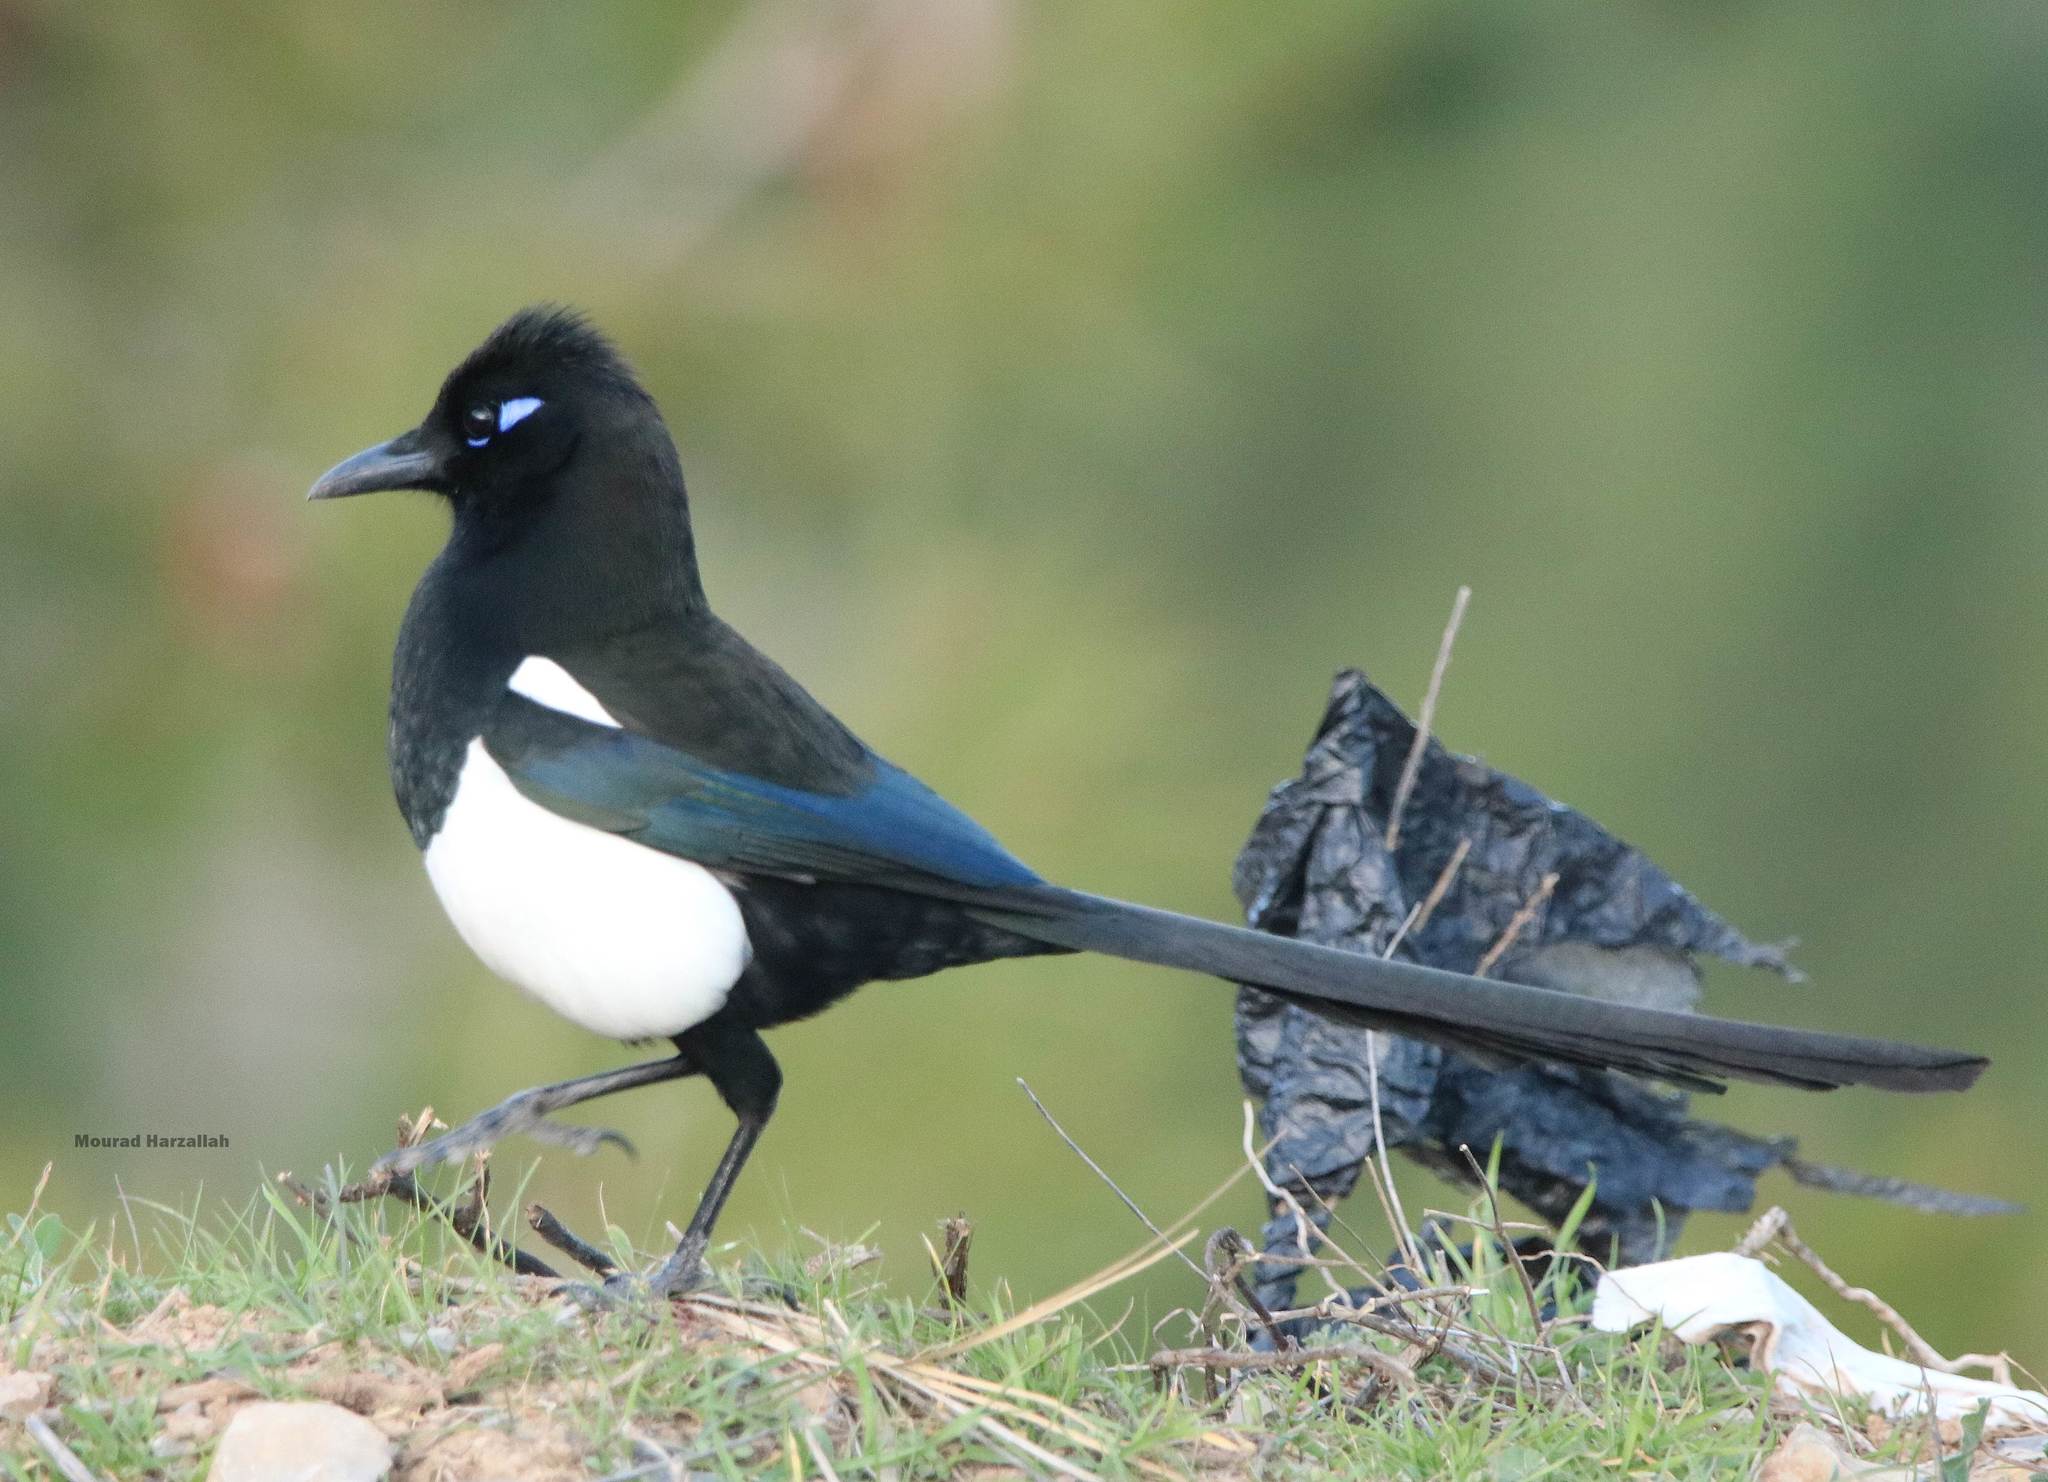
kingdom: Animalia
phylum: Chordata
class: Aves
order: Passeriformes
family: Corvidae
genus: Pica
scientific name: Pica mauritanica
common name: Maghreb magpie
